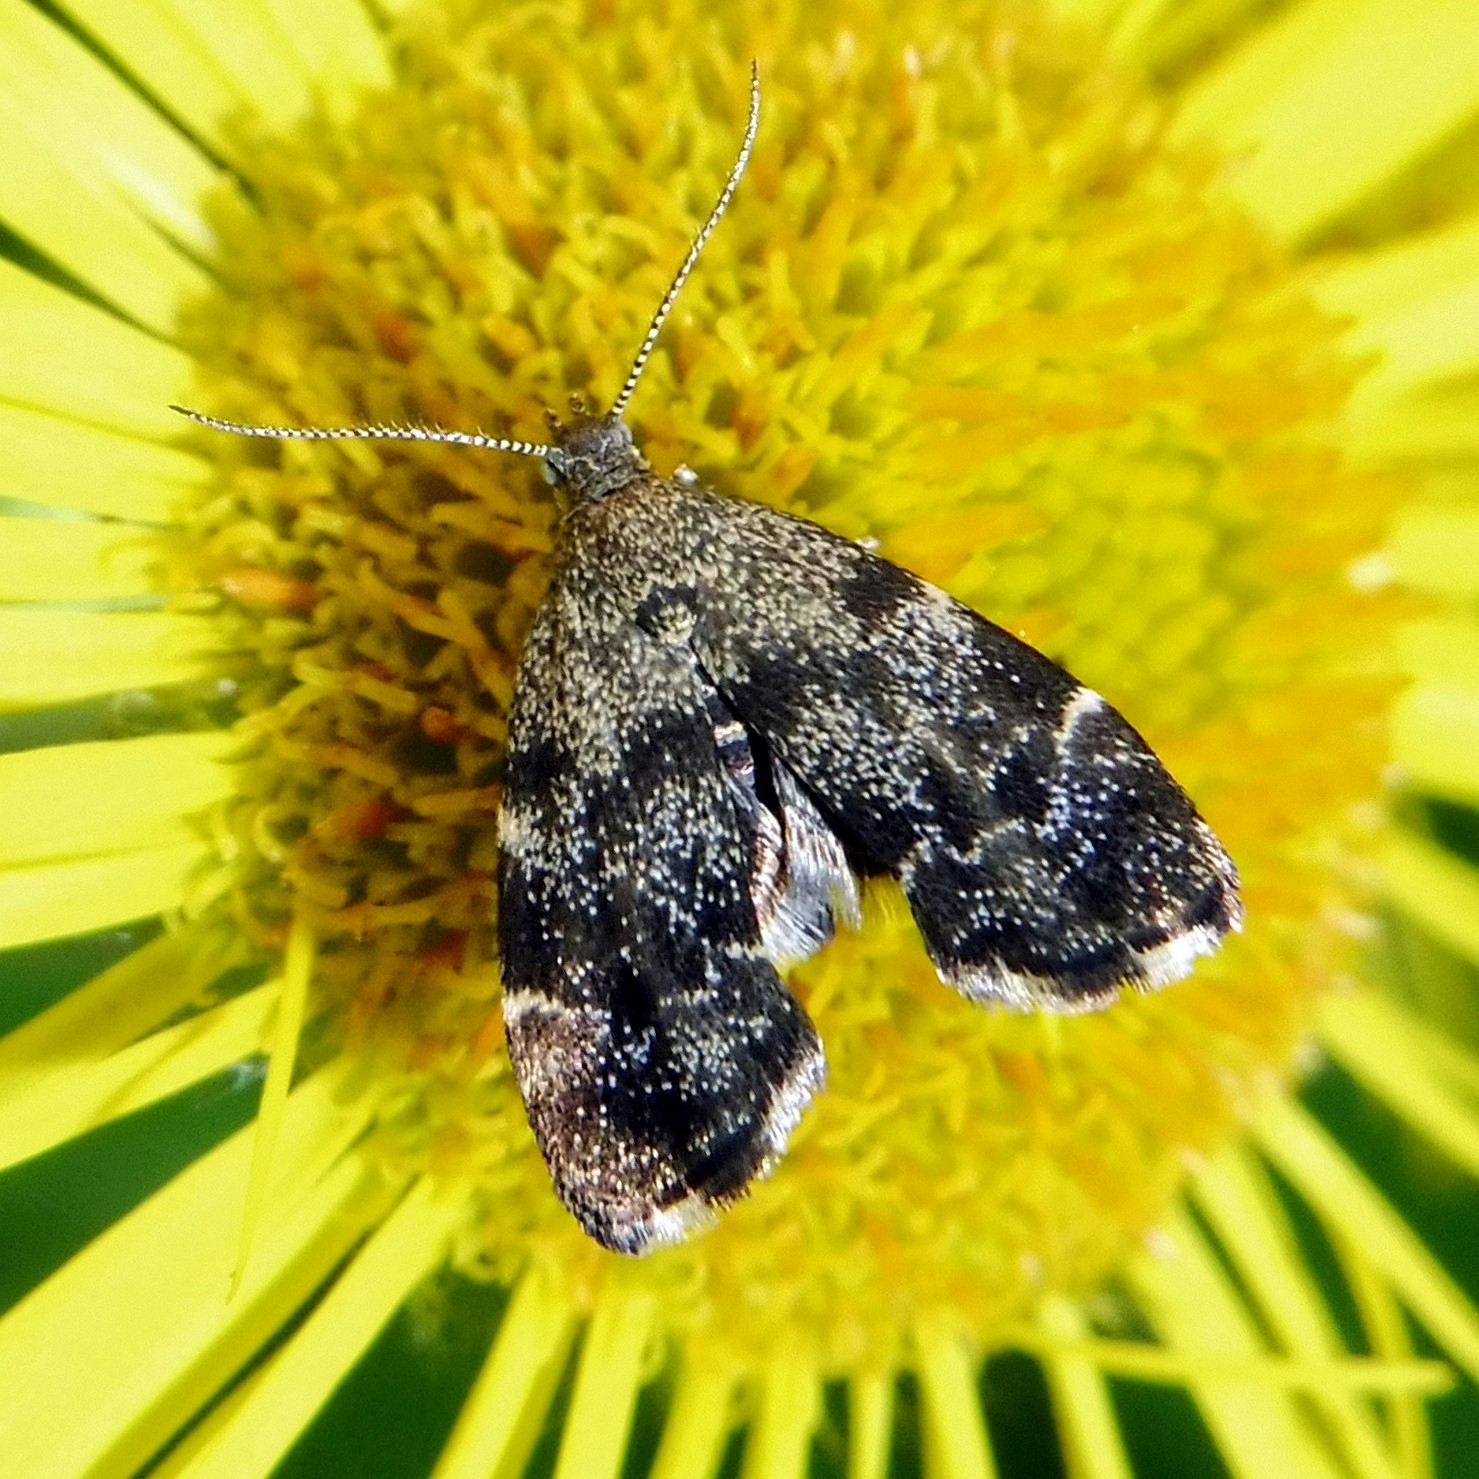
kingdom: Animalia
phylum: Arthropoda
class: Insecta
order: Lepidoptera
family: Choreutidae
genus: Anthophila
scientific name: Anthophila fabriciana
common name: Nettle-tap
